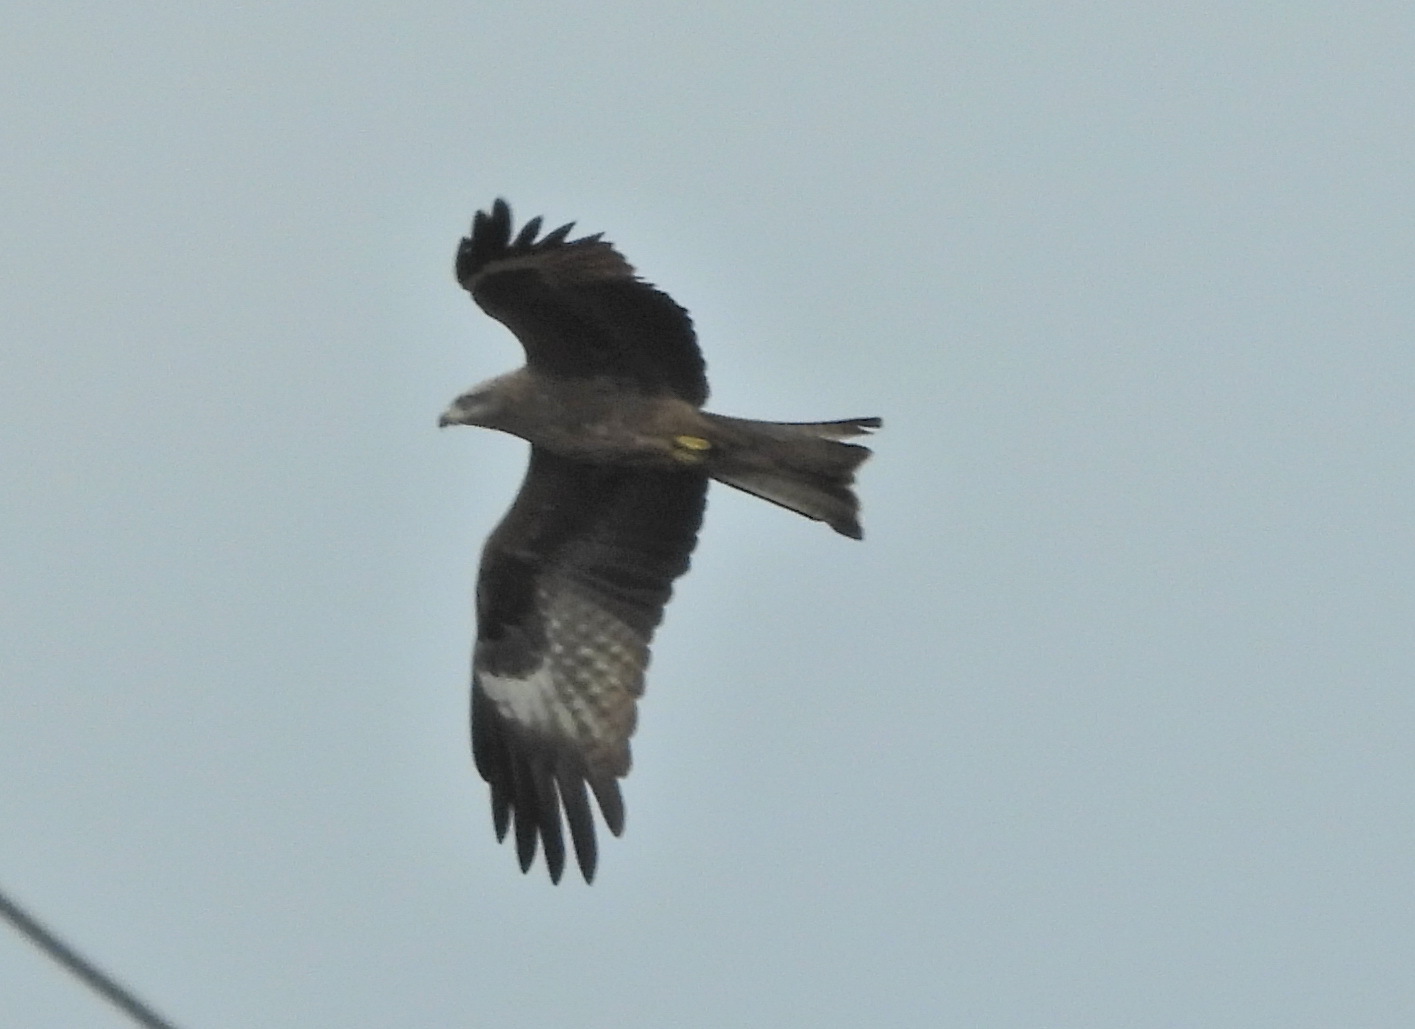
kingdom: Animalia
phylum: Chordata
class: Aves
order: Accipitriformes
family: Accipitridae
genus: Milvus
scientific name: Milvus migrans
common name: Black kite
